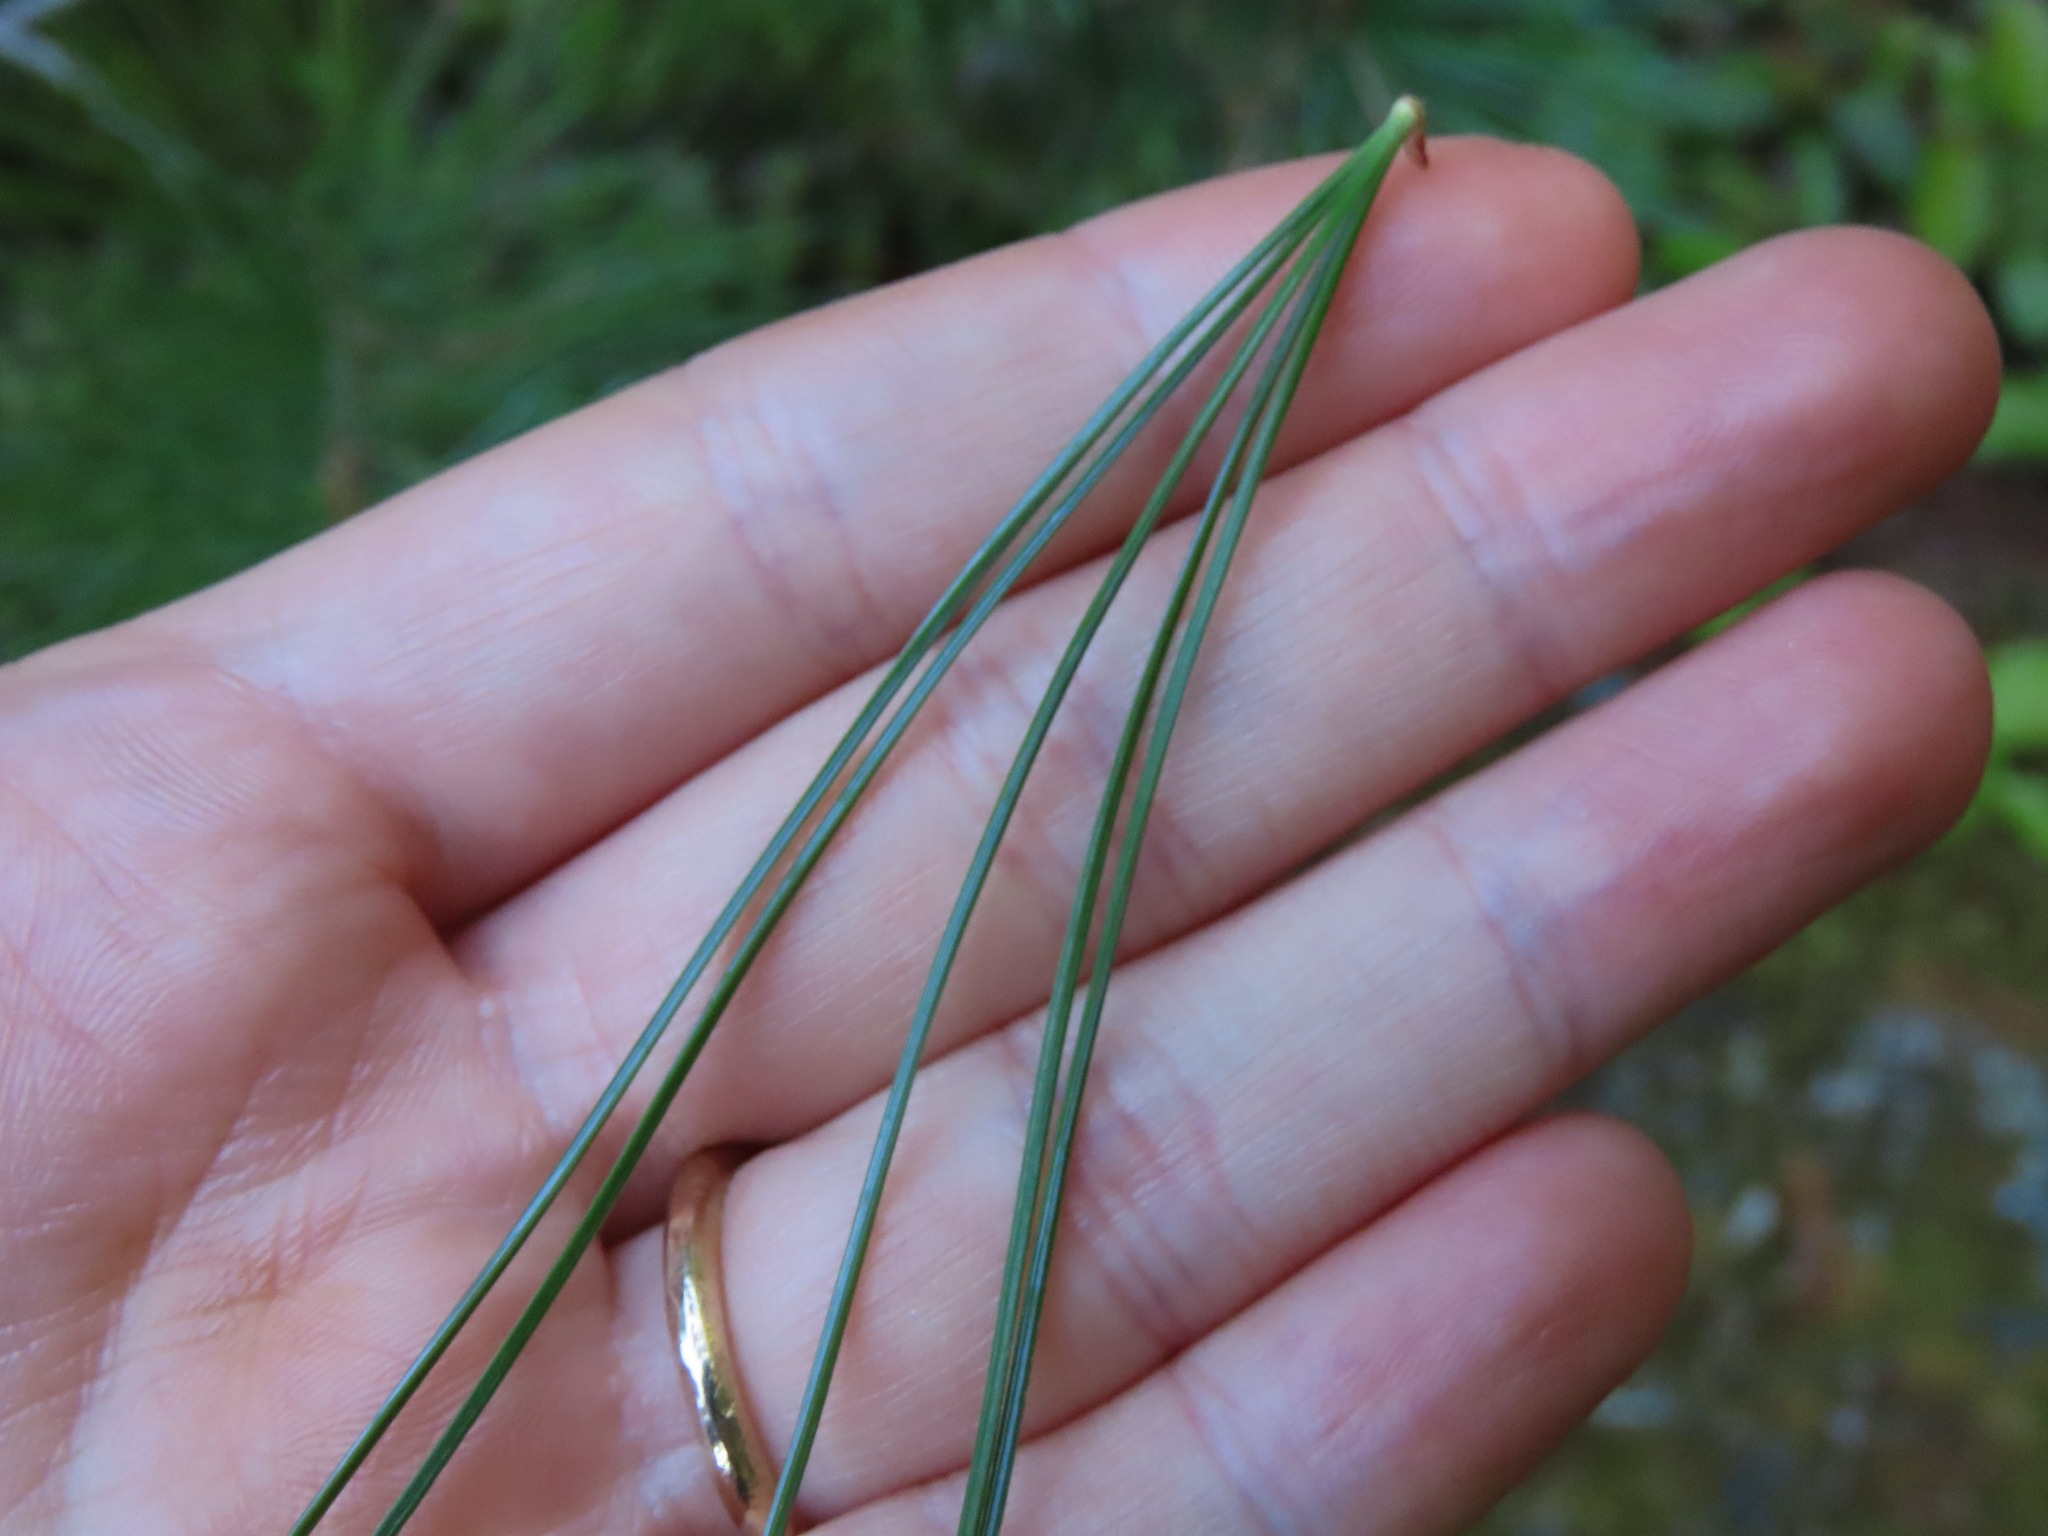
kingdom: Plantae
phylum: Tracheophyta
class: Pinopsida
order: Pinales
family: Pinaceae
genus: Pinus
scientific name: Pinus monticola
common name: Western white pine
